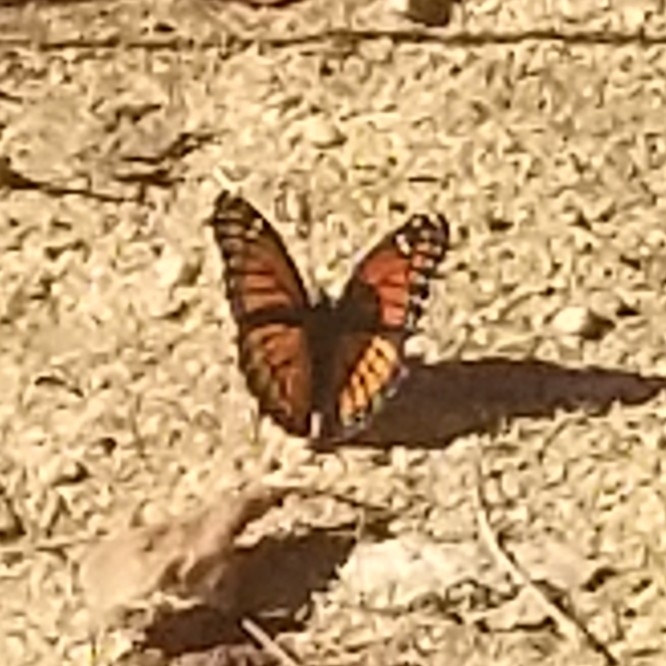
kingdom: Animalia
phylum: Arthropoda
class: Insecta
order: Lepidoptera
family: Nymphalidae
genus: Limenitis
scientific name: Limenitis archippus
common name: Viceroy
